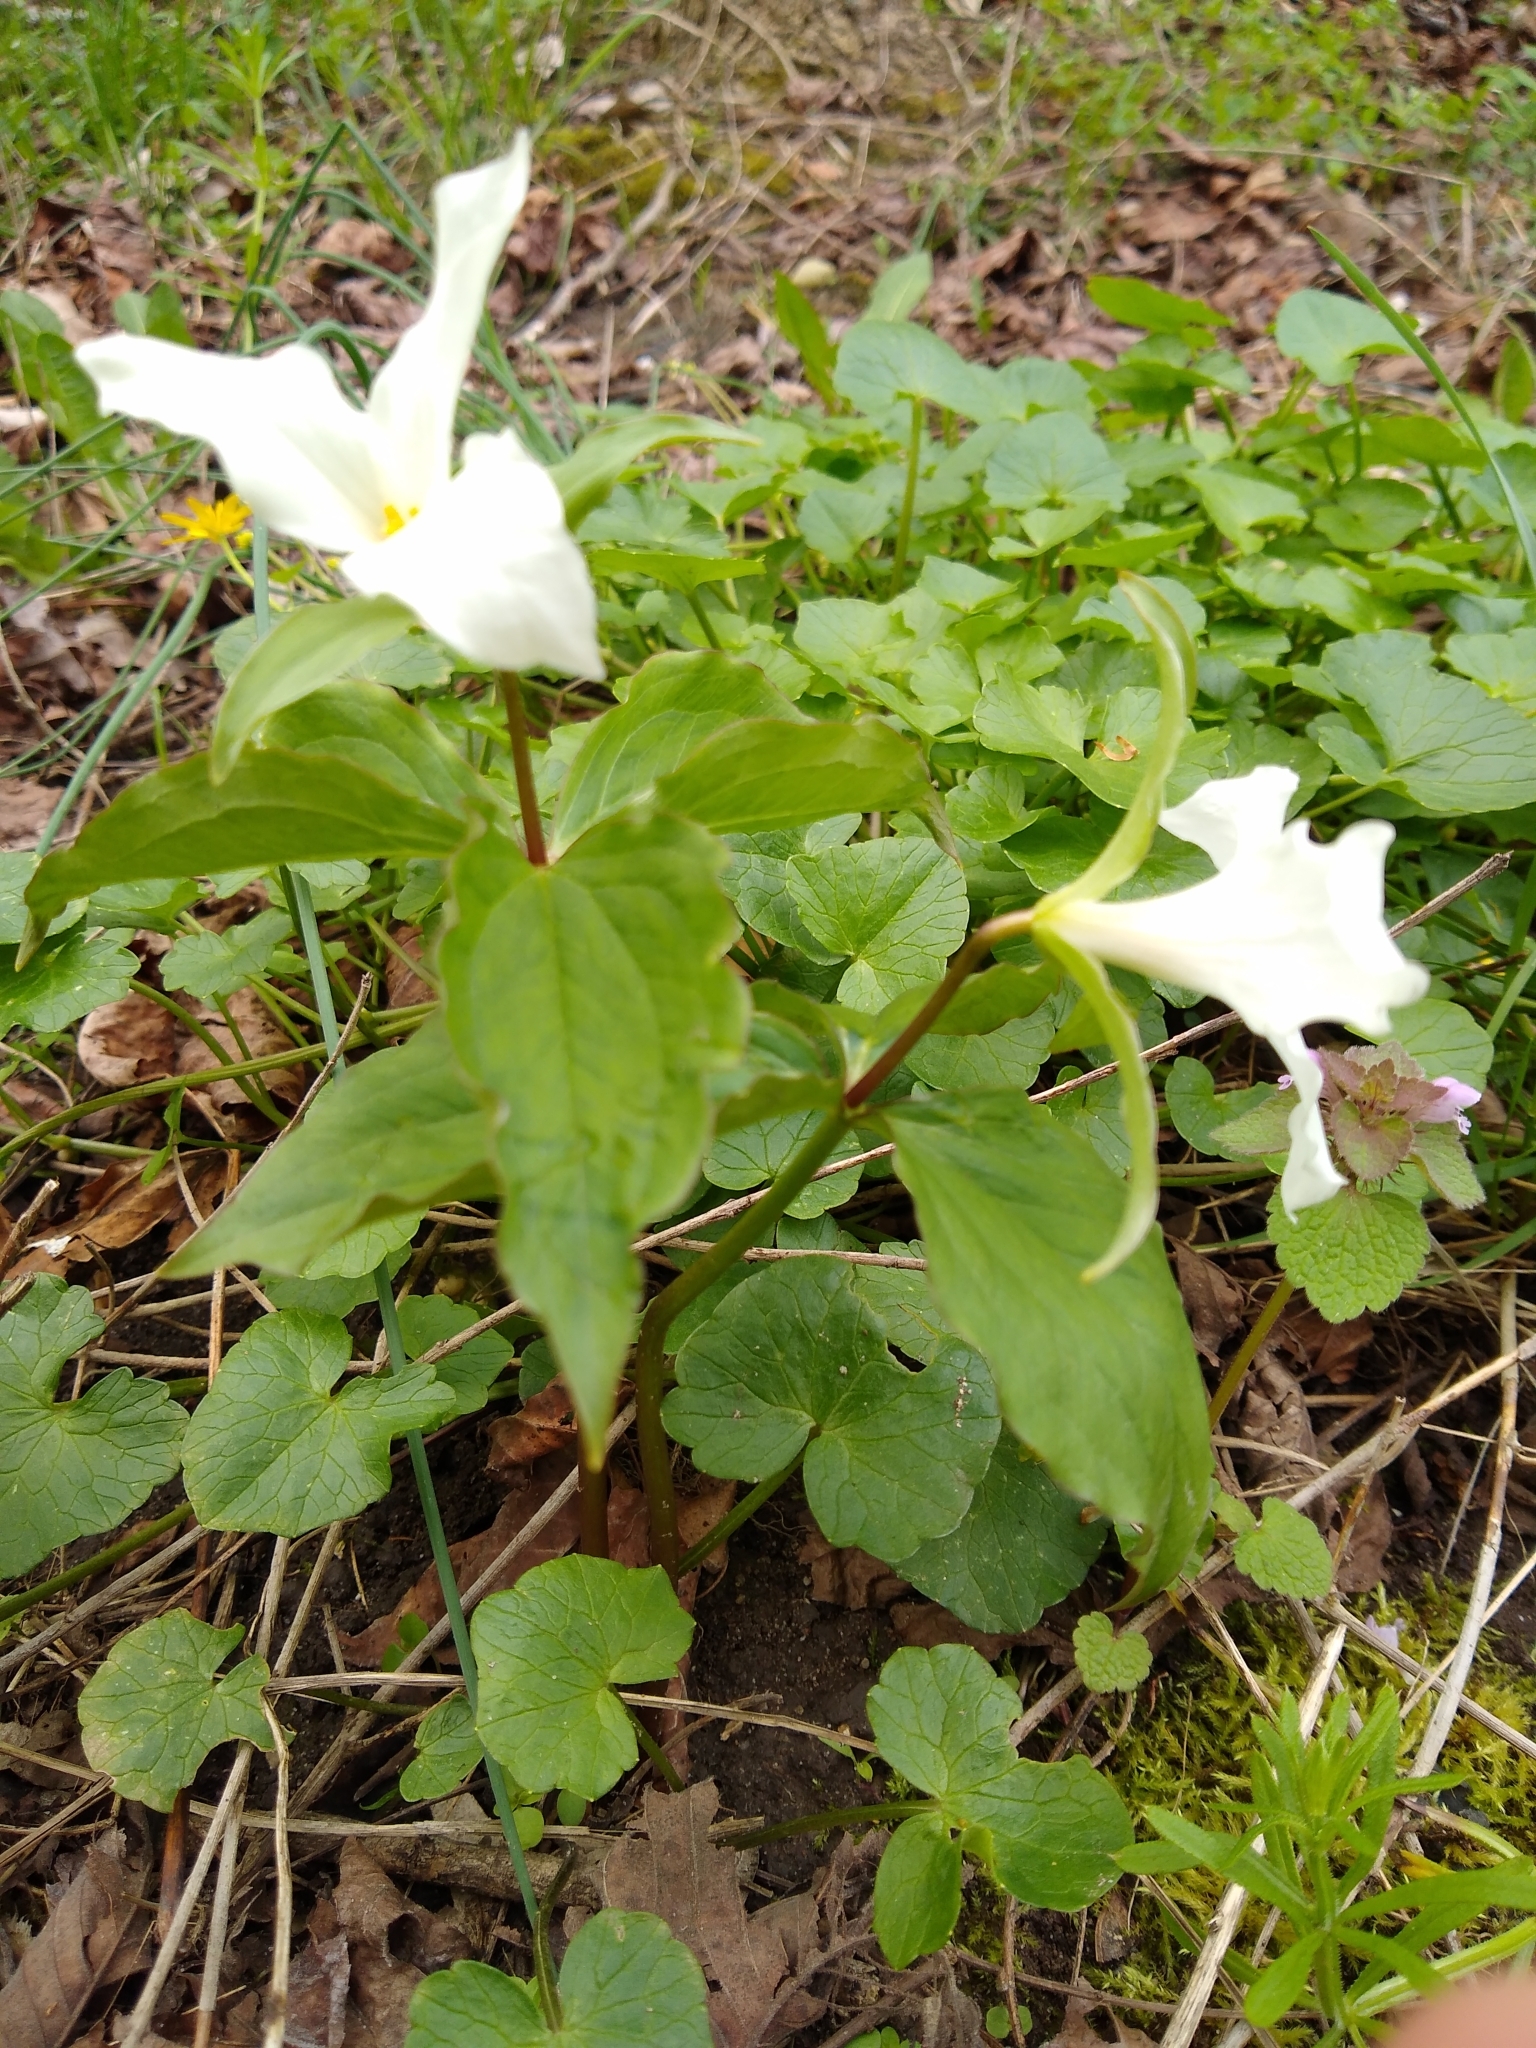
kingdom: Plantae
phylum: Tracheophyta
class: Liliopsida
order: Liliales
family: Melanthiaceae
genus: Trillium
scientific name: Trillium grandiflorum
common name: Great white trillium
